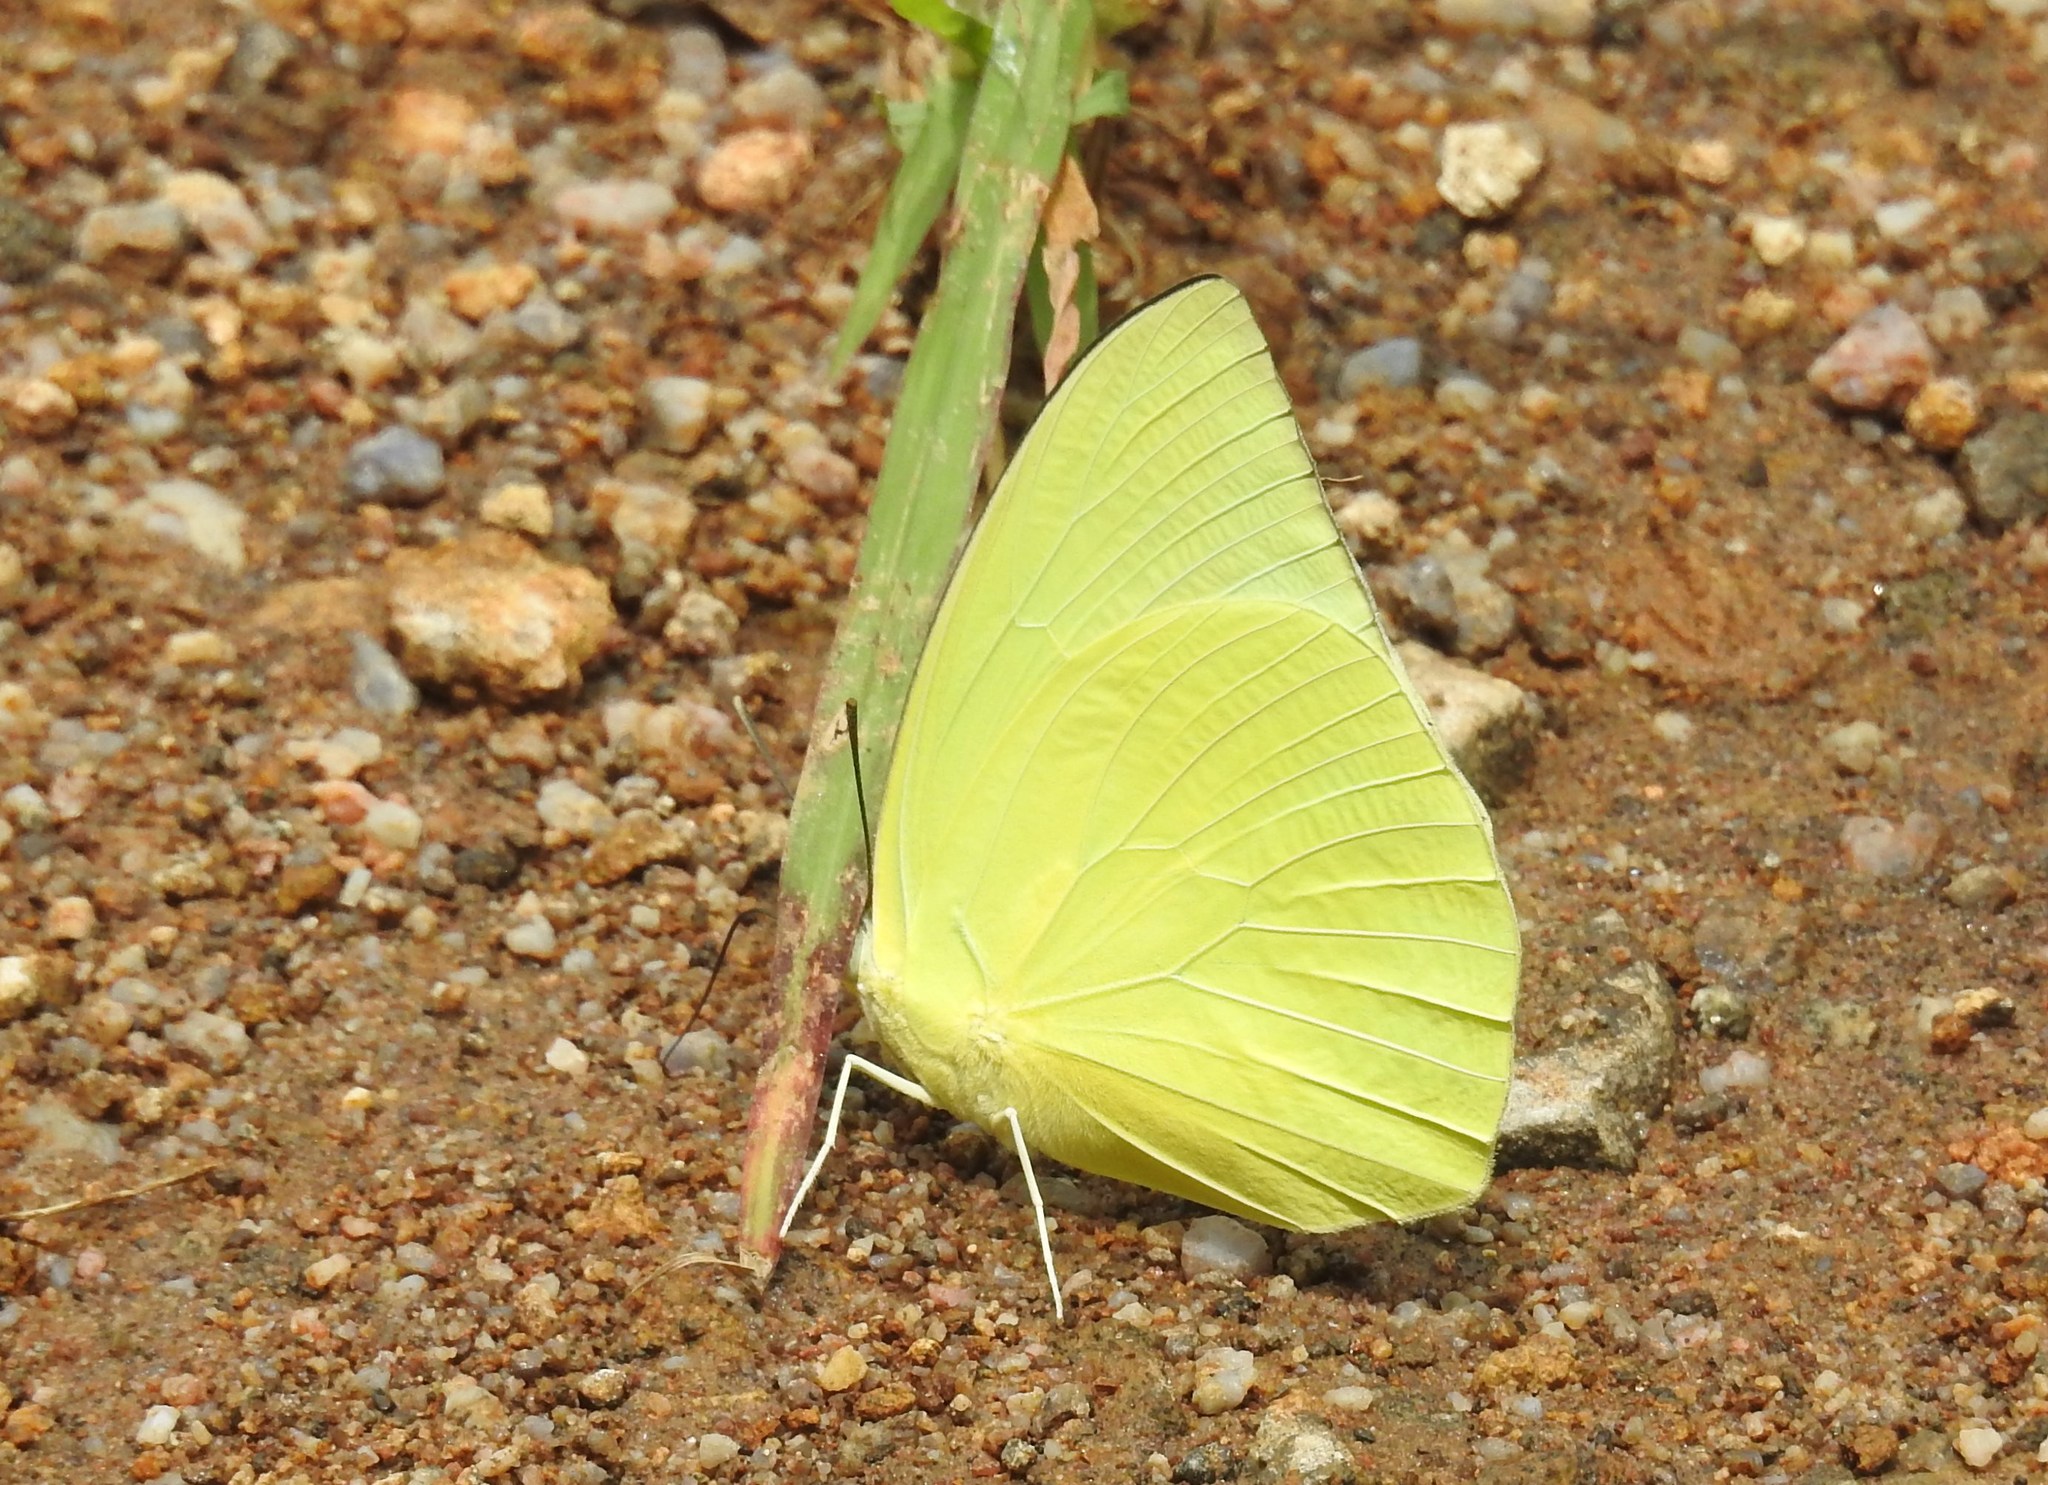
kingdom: Animalia
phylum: Arthropoda
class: Insecta
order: Lepidoptera
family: Pieridae
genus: Catopsilia
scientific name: Catopsilia pomona
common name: Common emigrant
